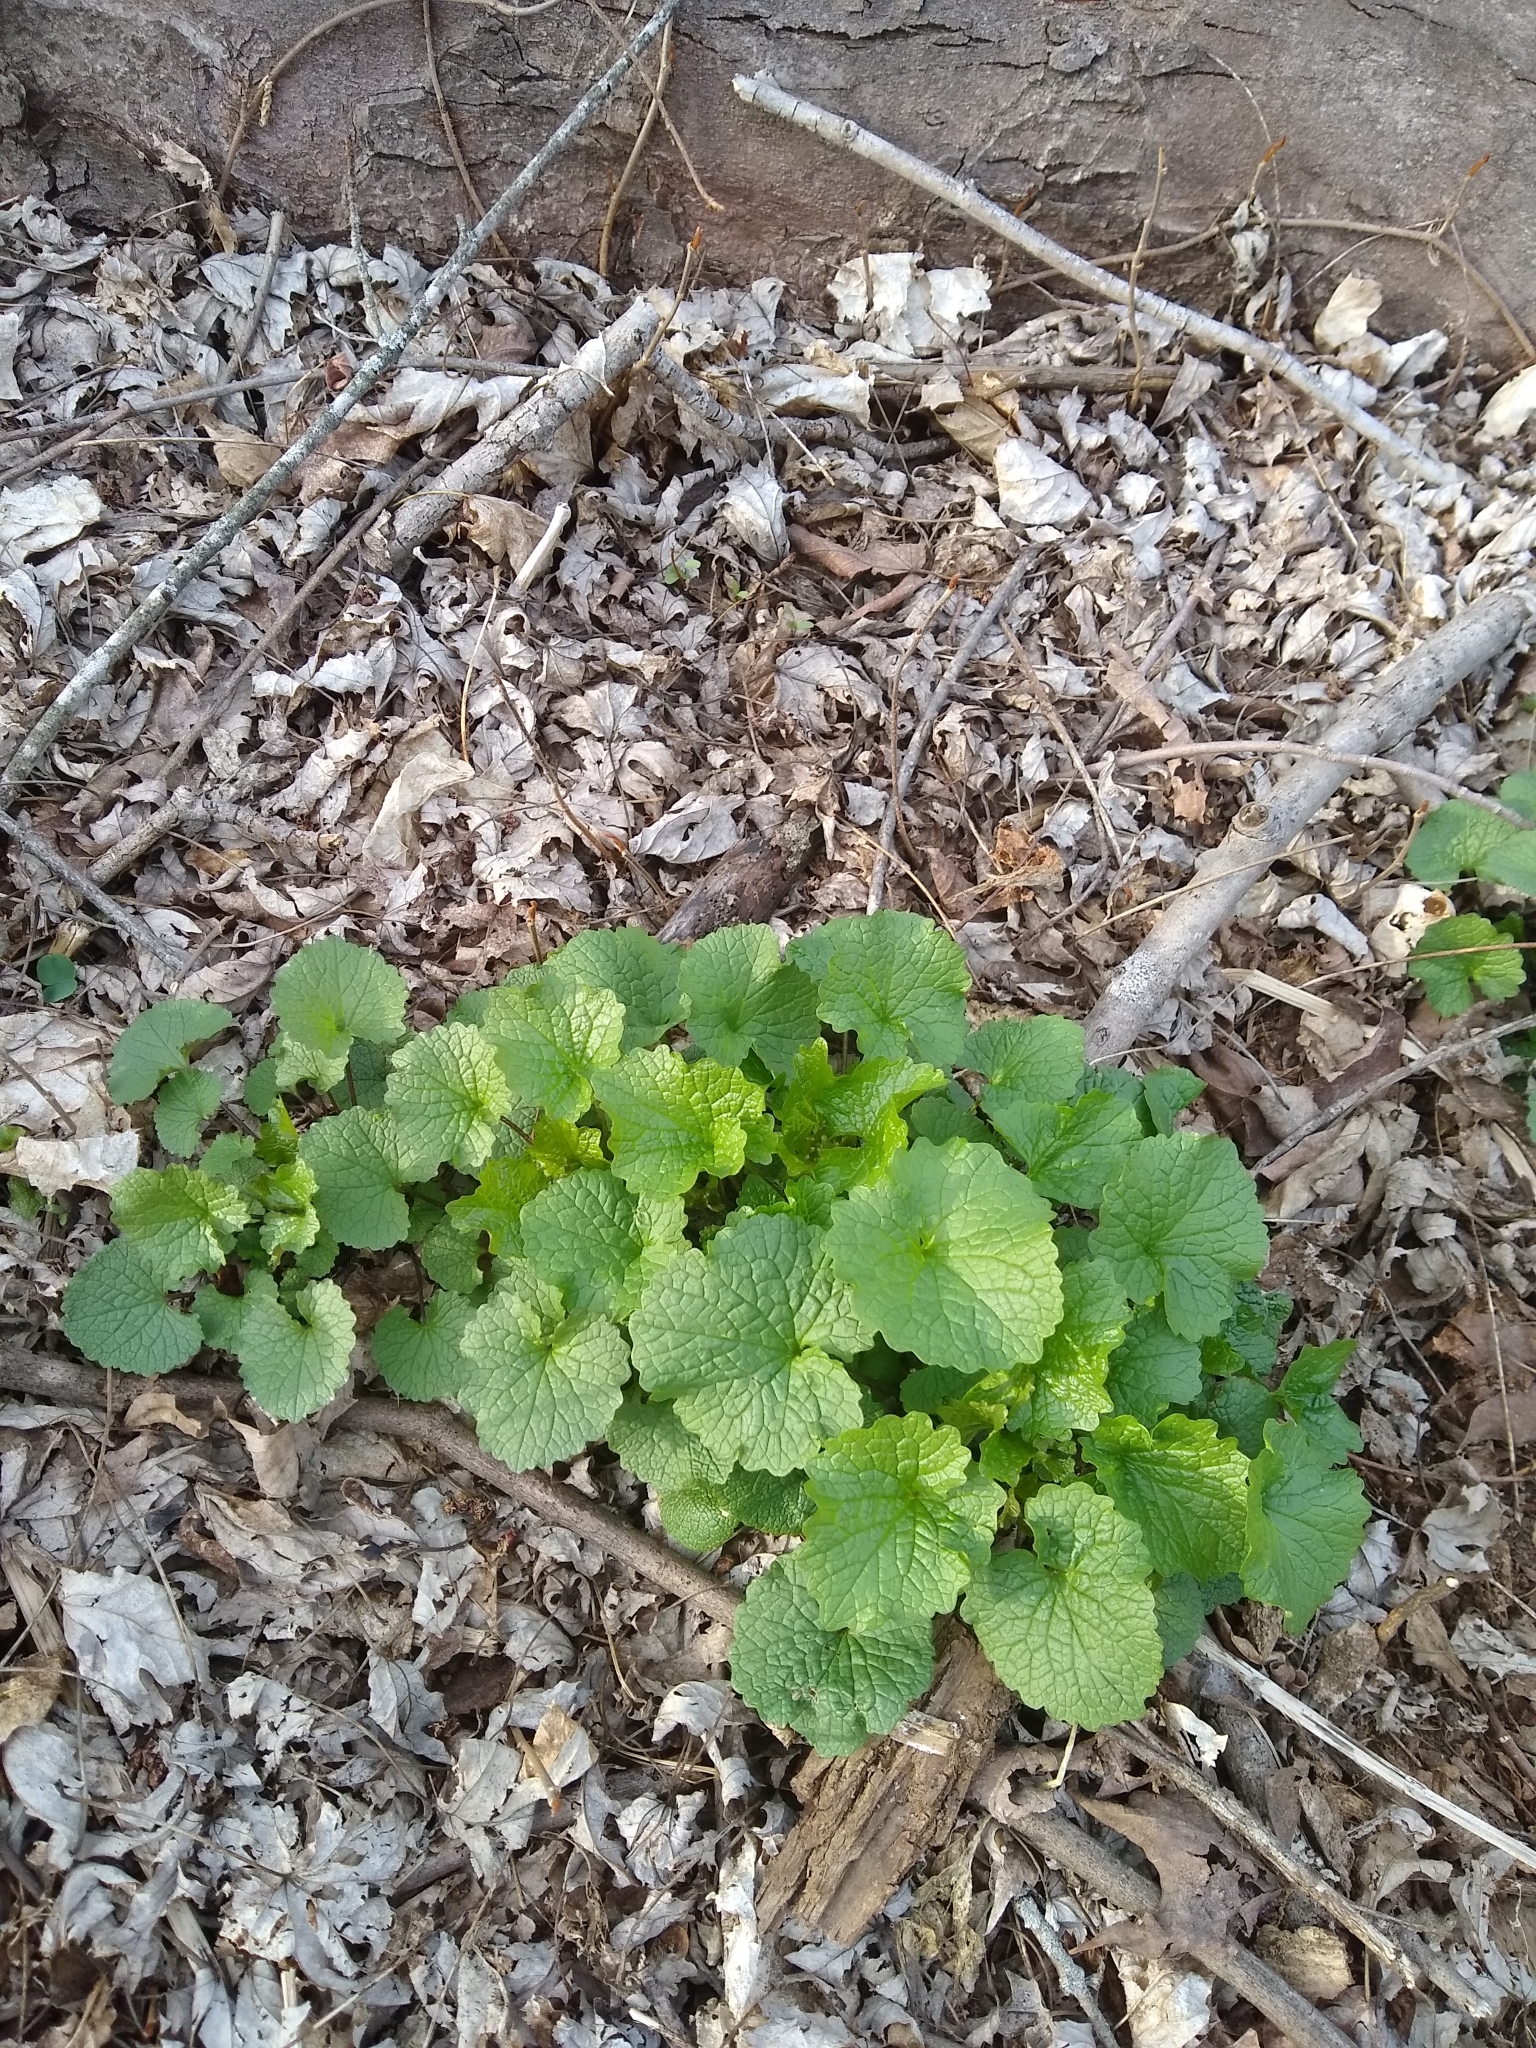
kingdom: Plantae
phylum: Tracheophyta
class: Magnoliopsida
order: Brassicales
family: Brassicaceae
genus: Alliaria
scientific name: Alliaria petiolata
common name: Garlic mustard
